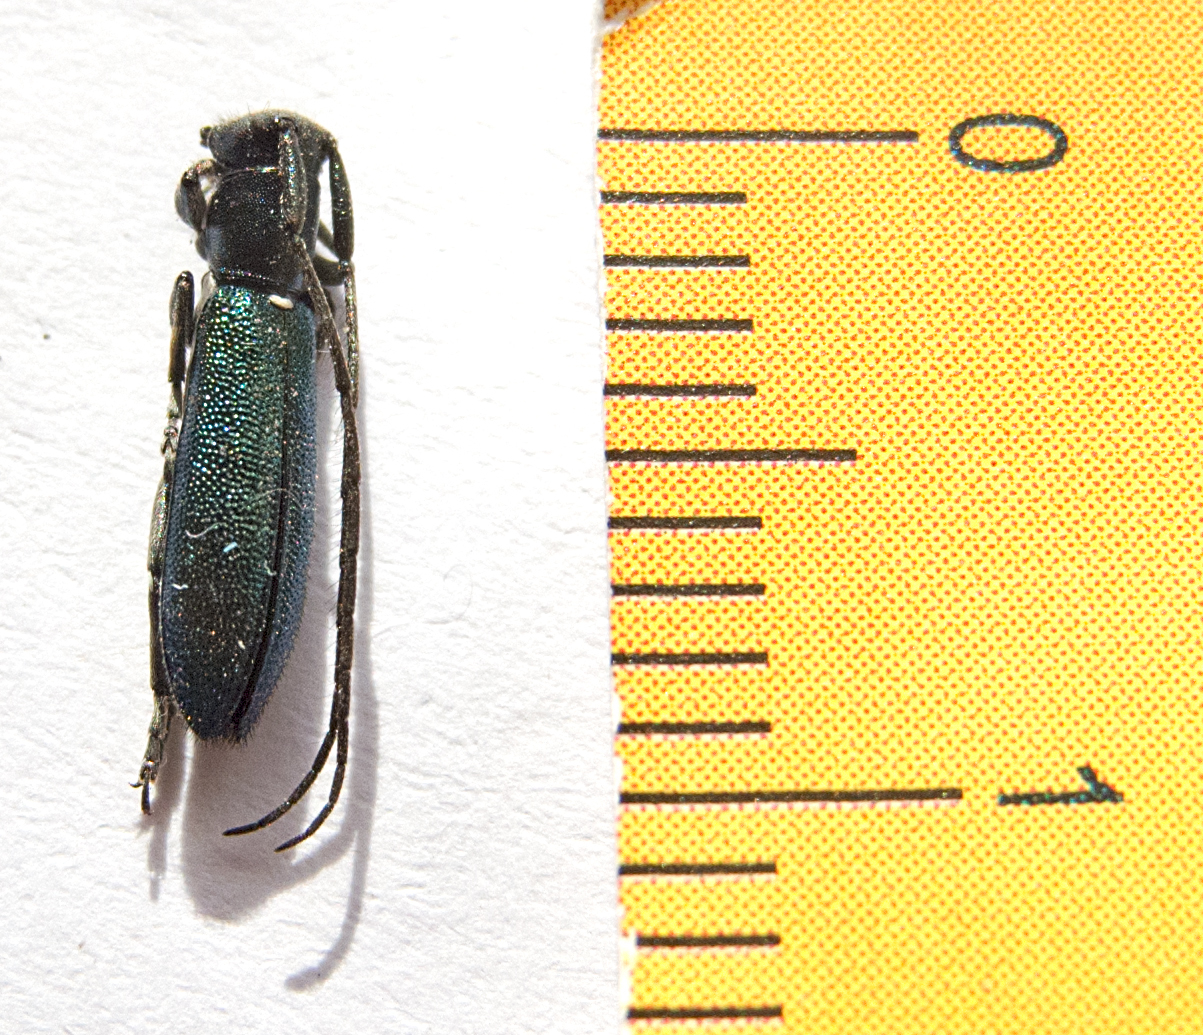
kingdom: Animalia
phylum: Arthropoda
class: Insecta
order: Coleoptera
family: Cerambycidae
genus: Agapanthiola
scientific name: Agapanthiola leucaspis
